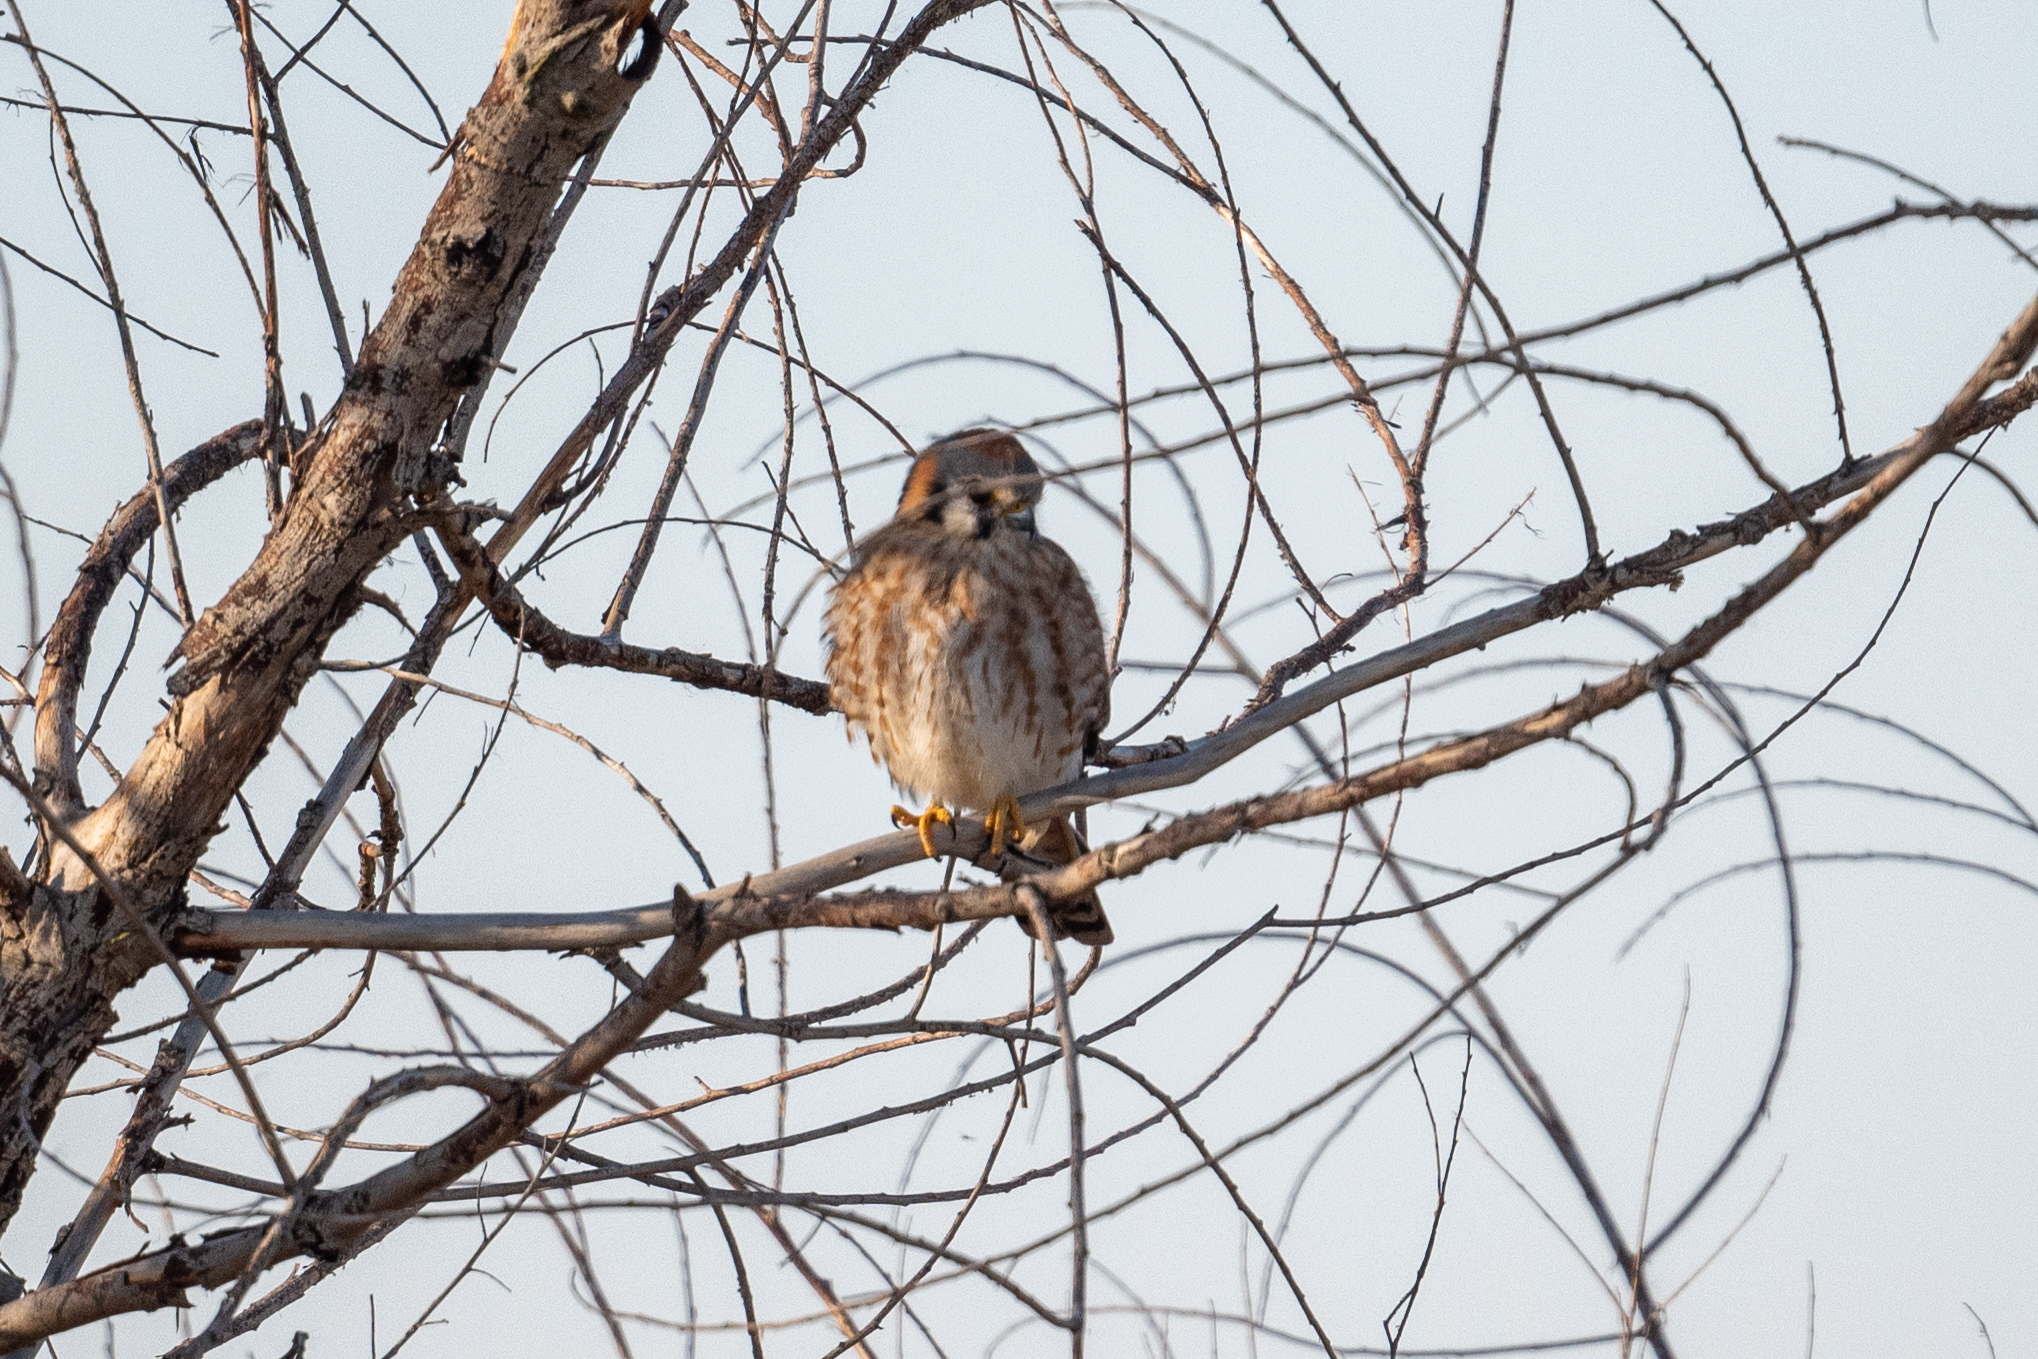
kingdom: Animalia
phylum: Chordata
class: Aves
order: Falconiformes
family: Falconidae
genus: Falco
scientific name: Falco sparverius
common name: American kestrel
